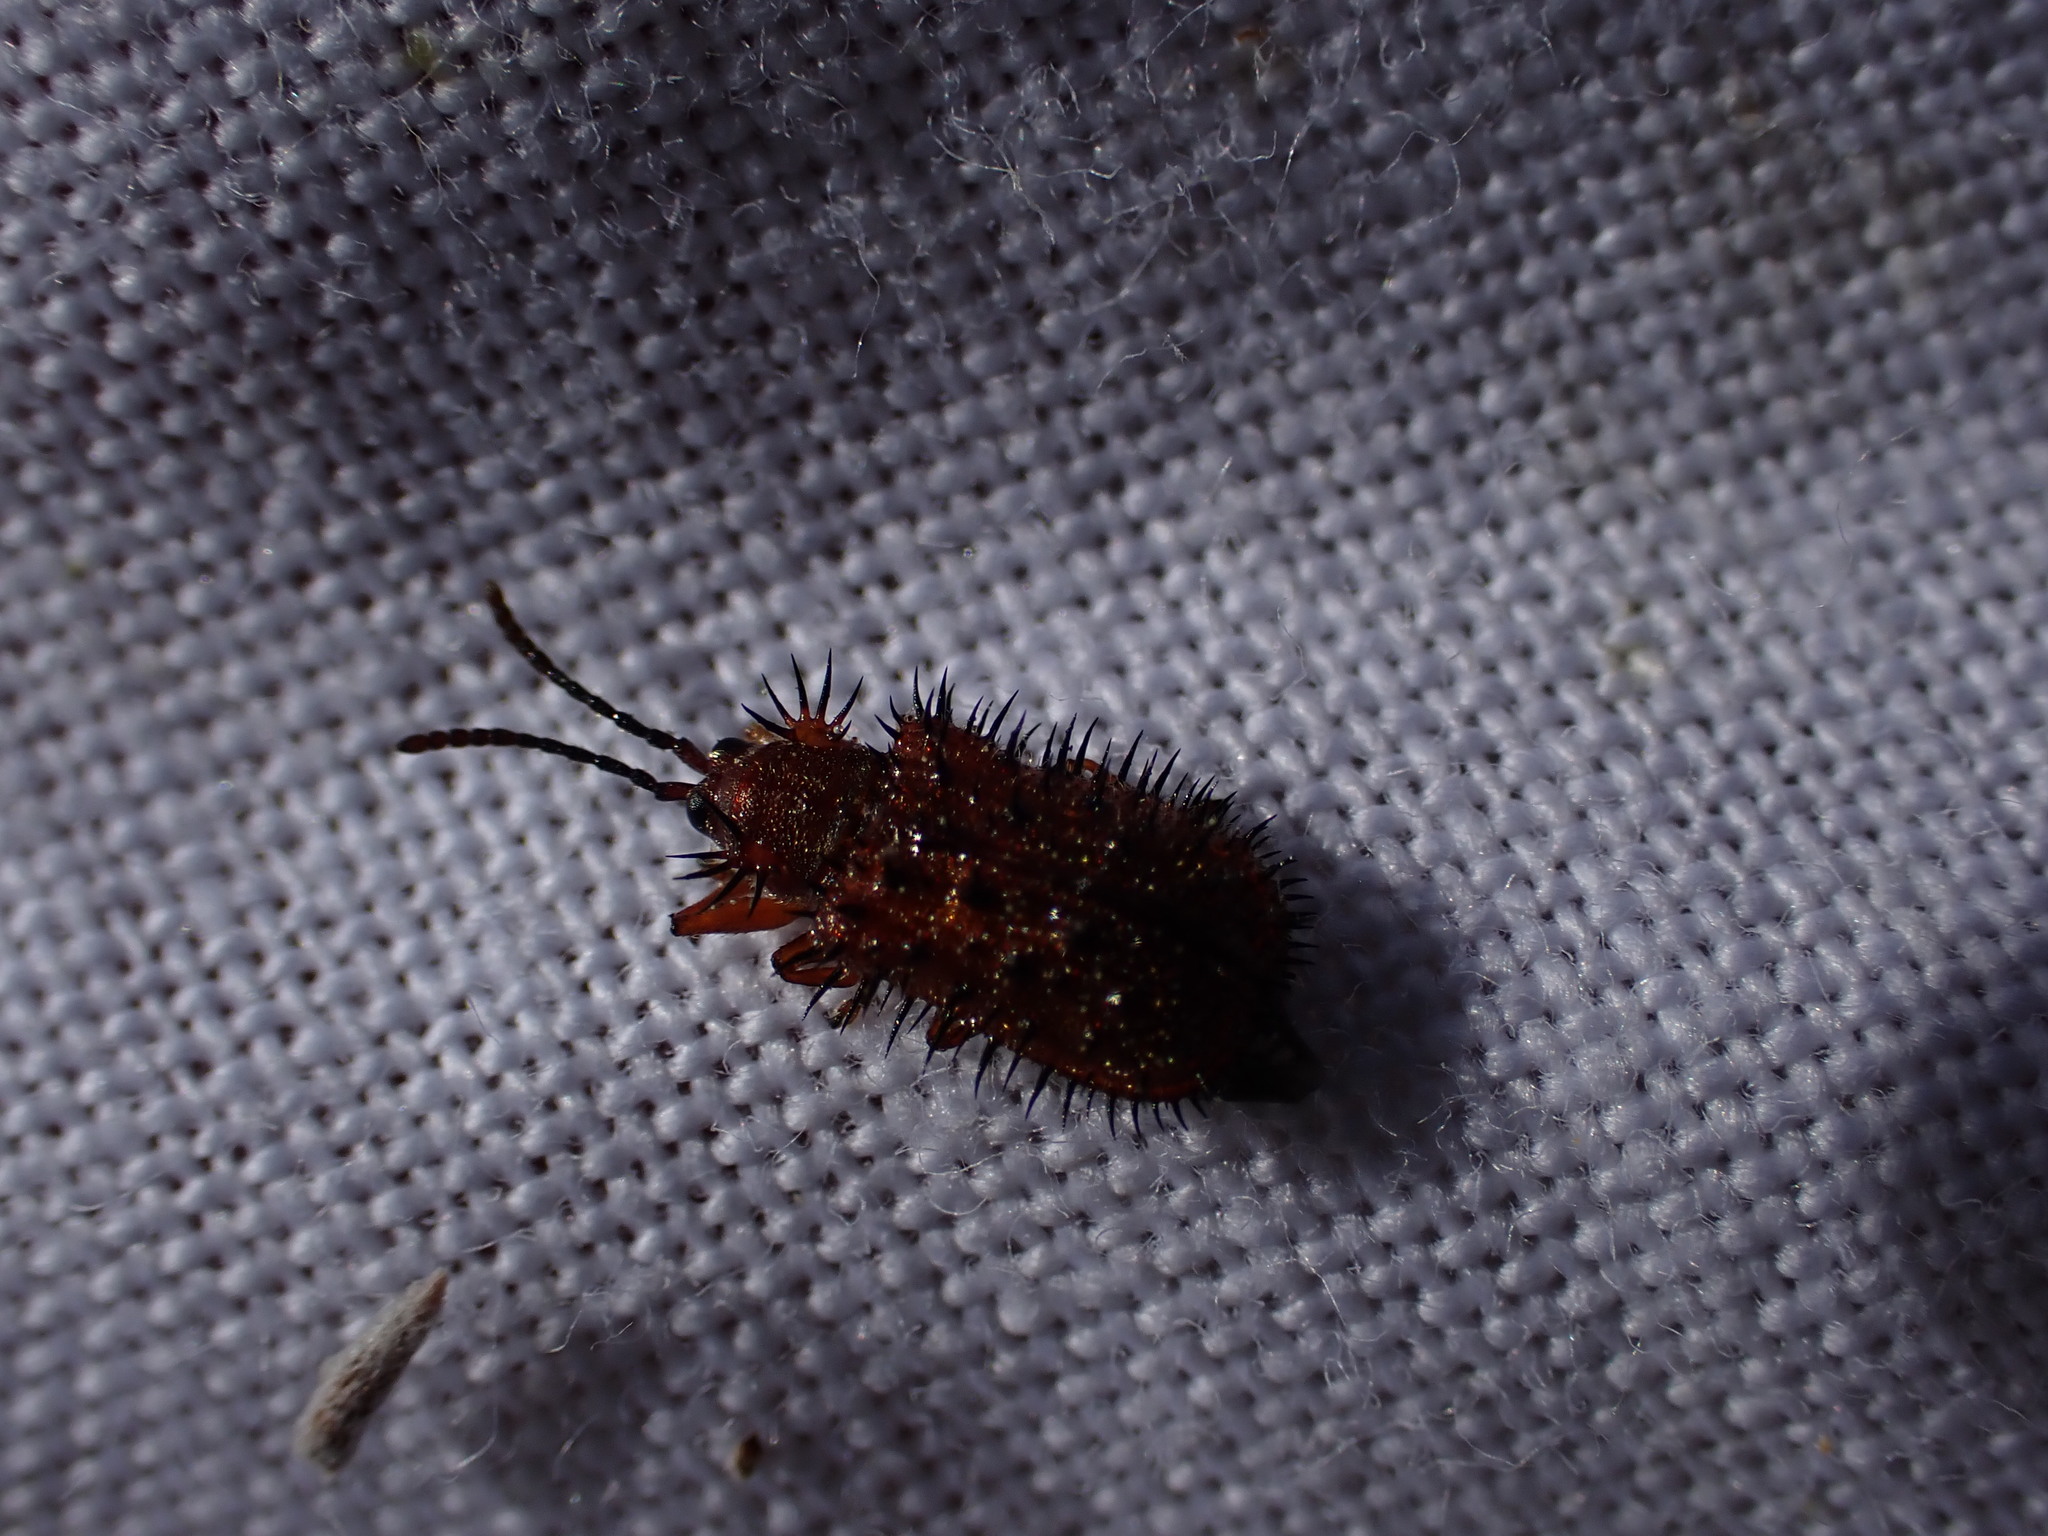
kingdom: Animalia
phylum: Arthropoda
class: Insecta
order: Coleoptera
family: Chrysomelidae
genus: Dicladispa
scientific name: Dicladispa testacea
